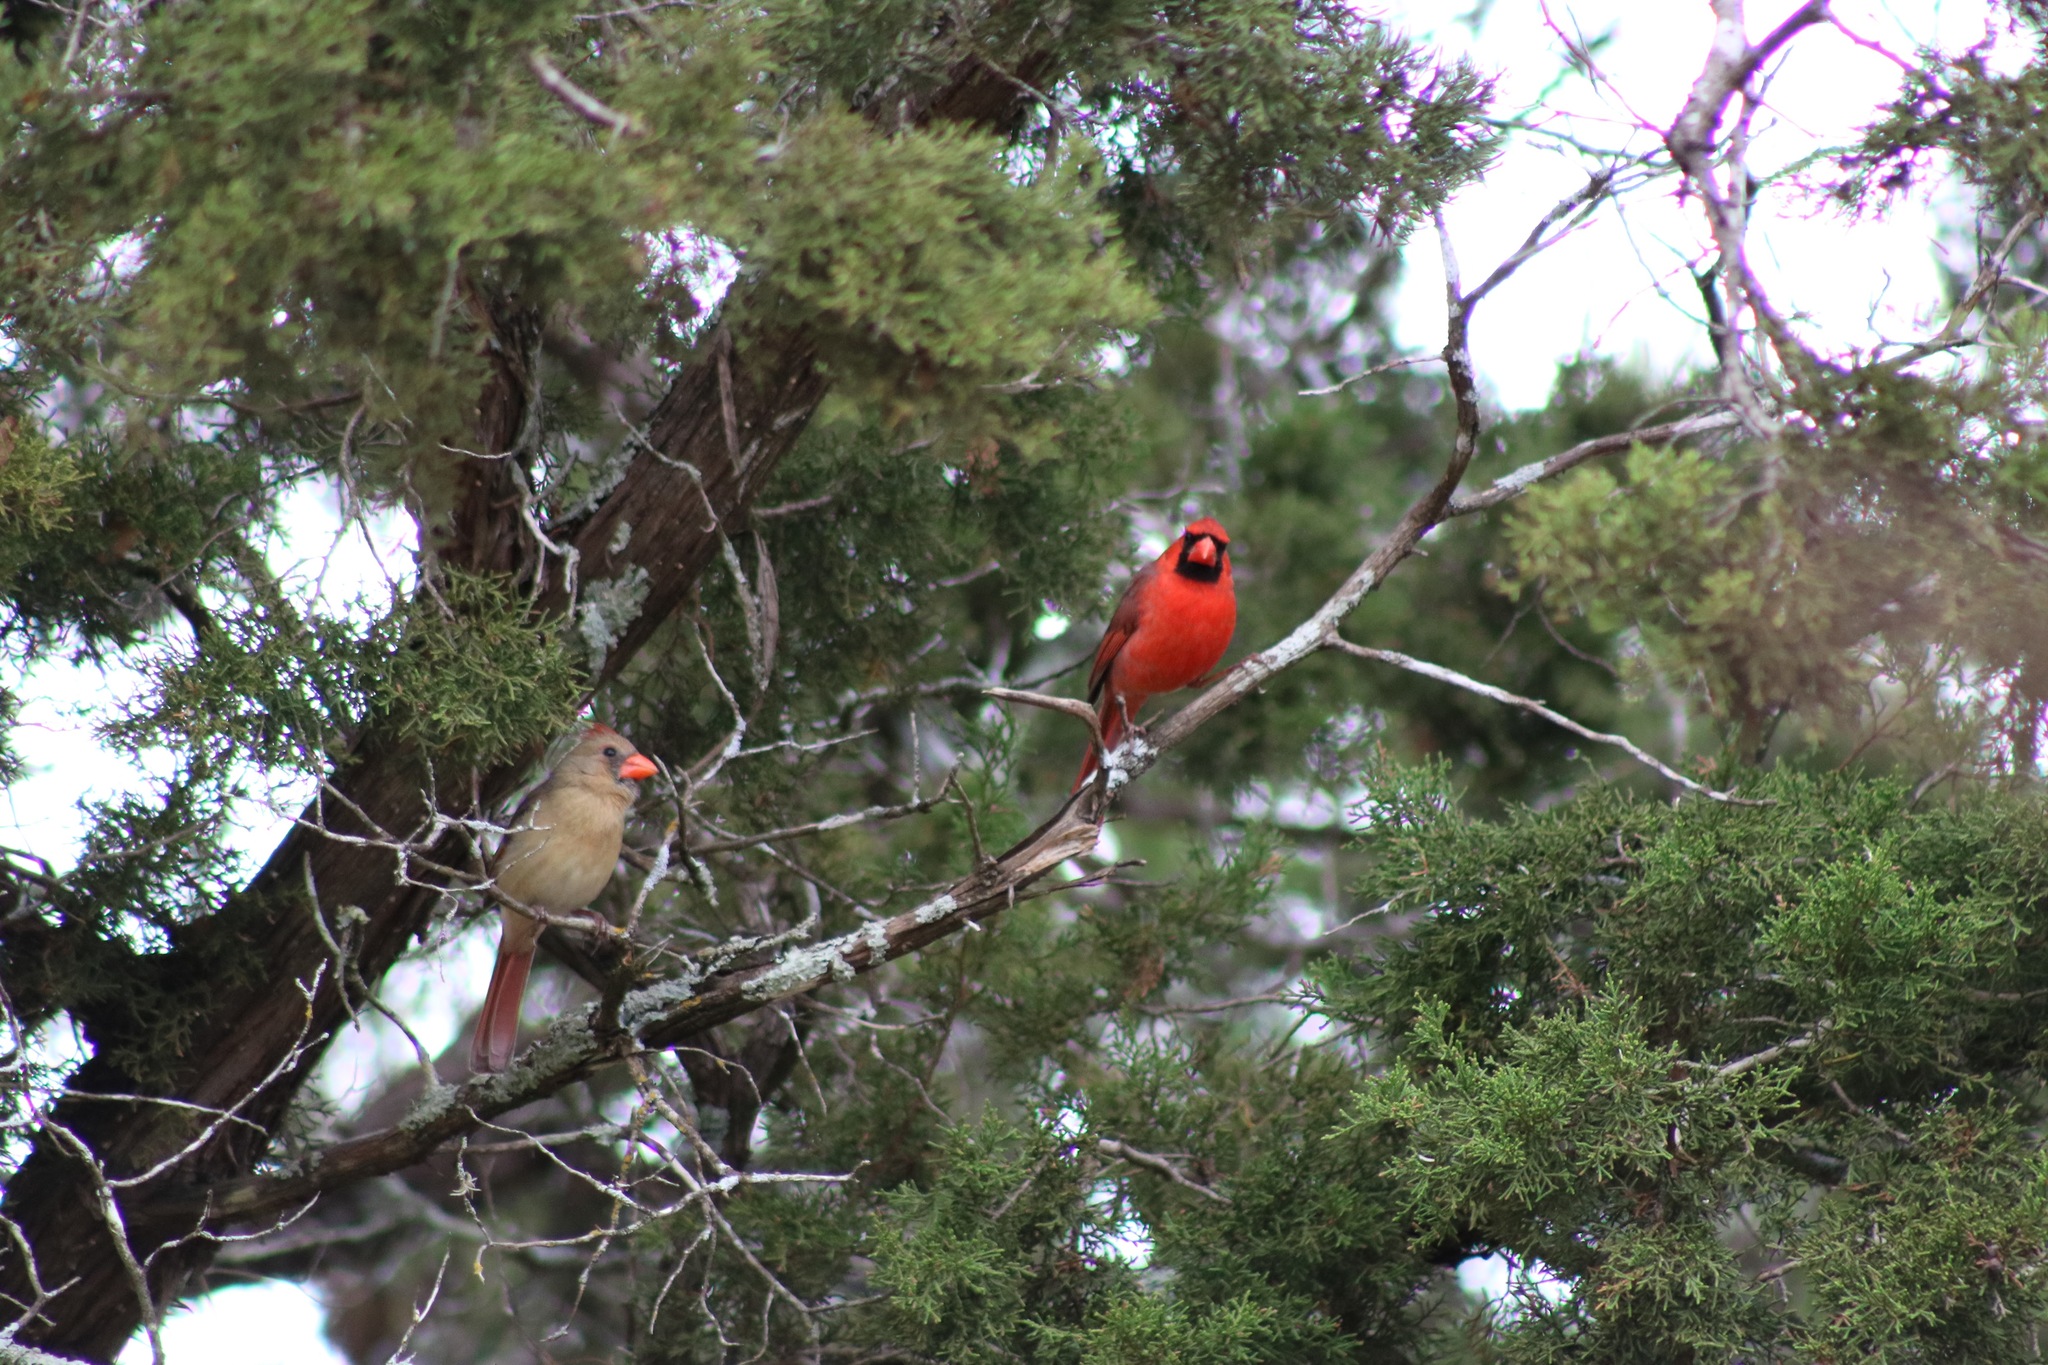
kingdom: Animalia
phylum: Chordata
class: Aves
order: Passeriformes
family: Cardinalidae
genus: Cardinalis
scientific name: Cardinalis cardinalis
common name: Northern cardinal
